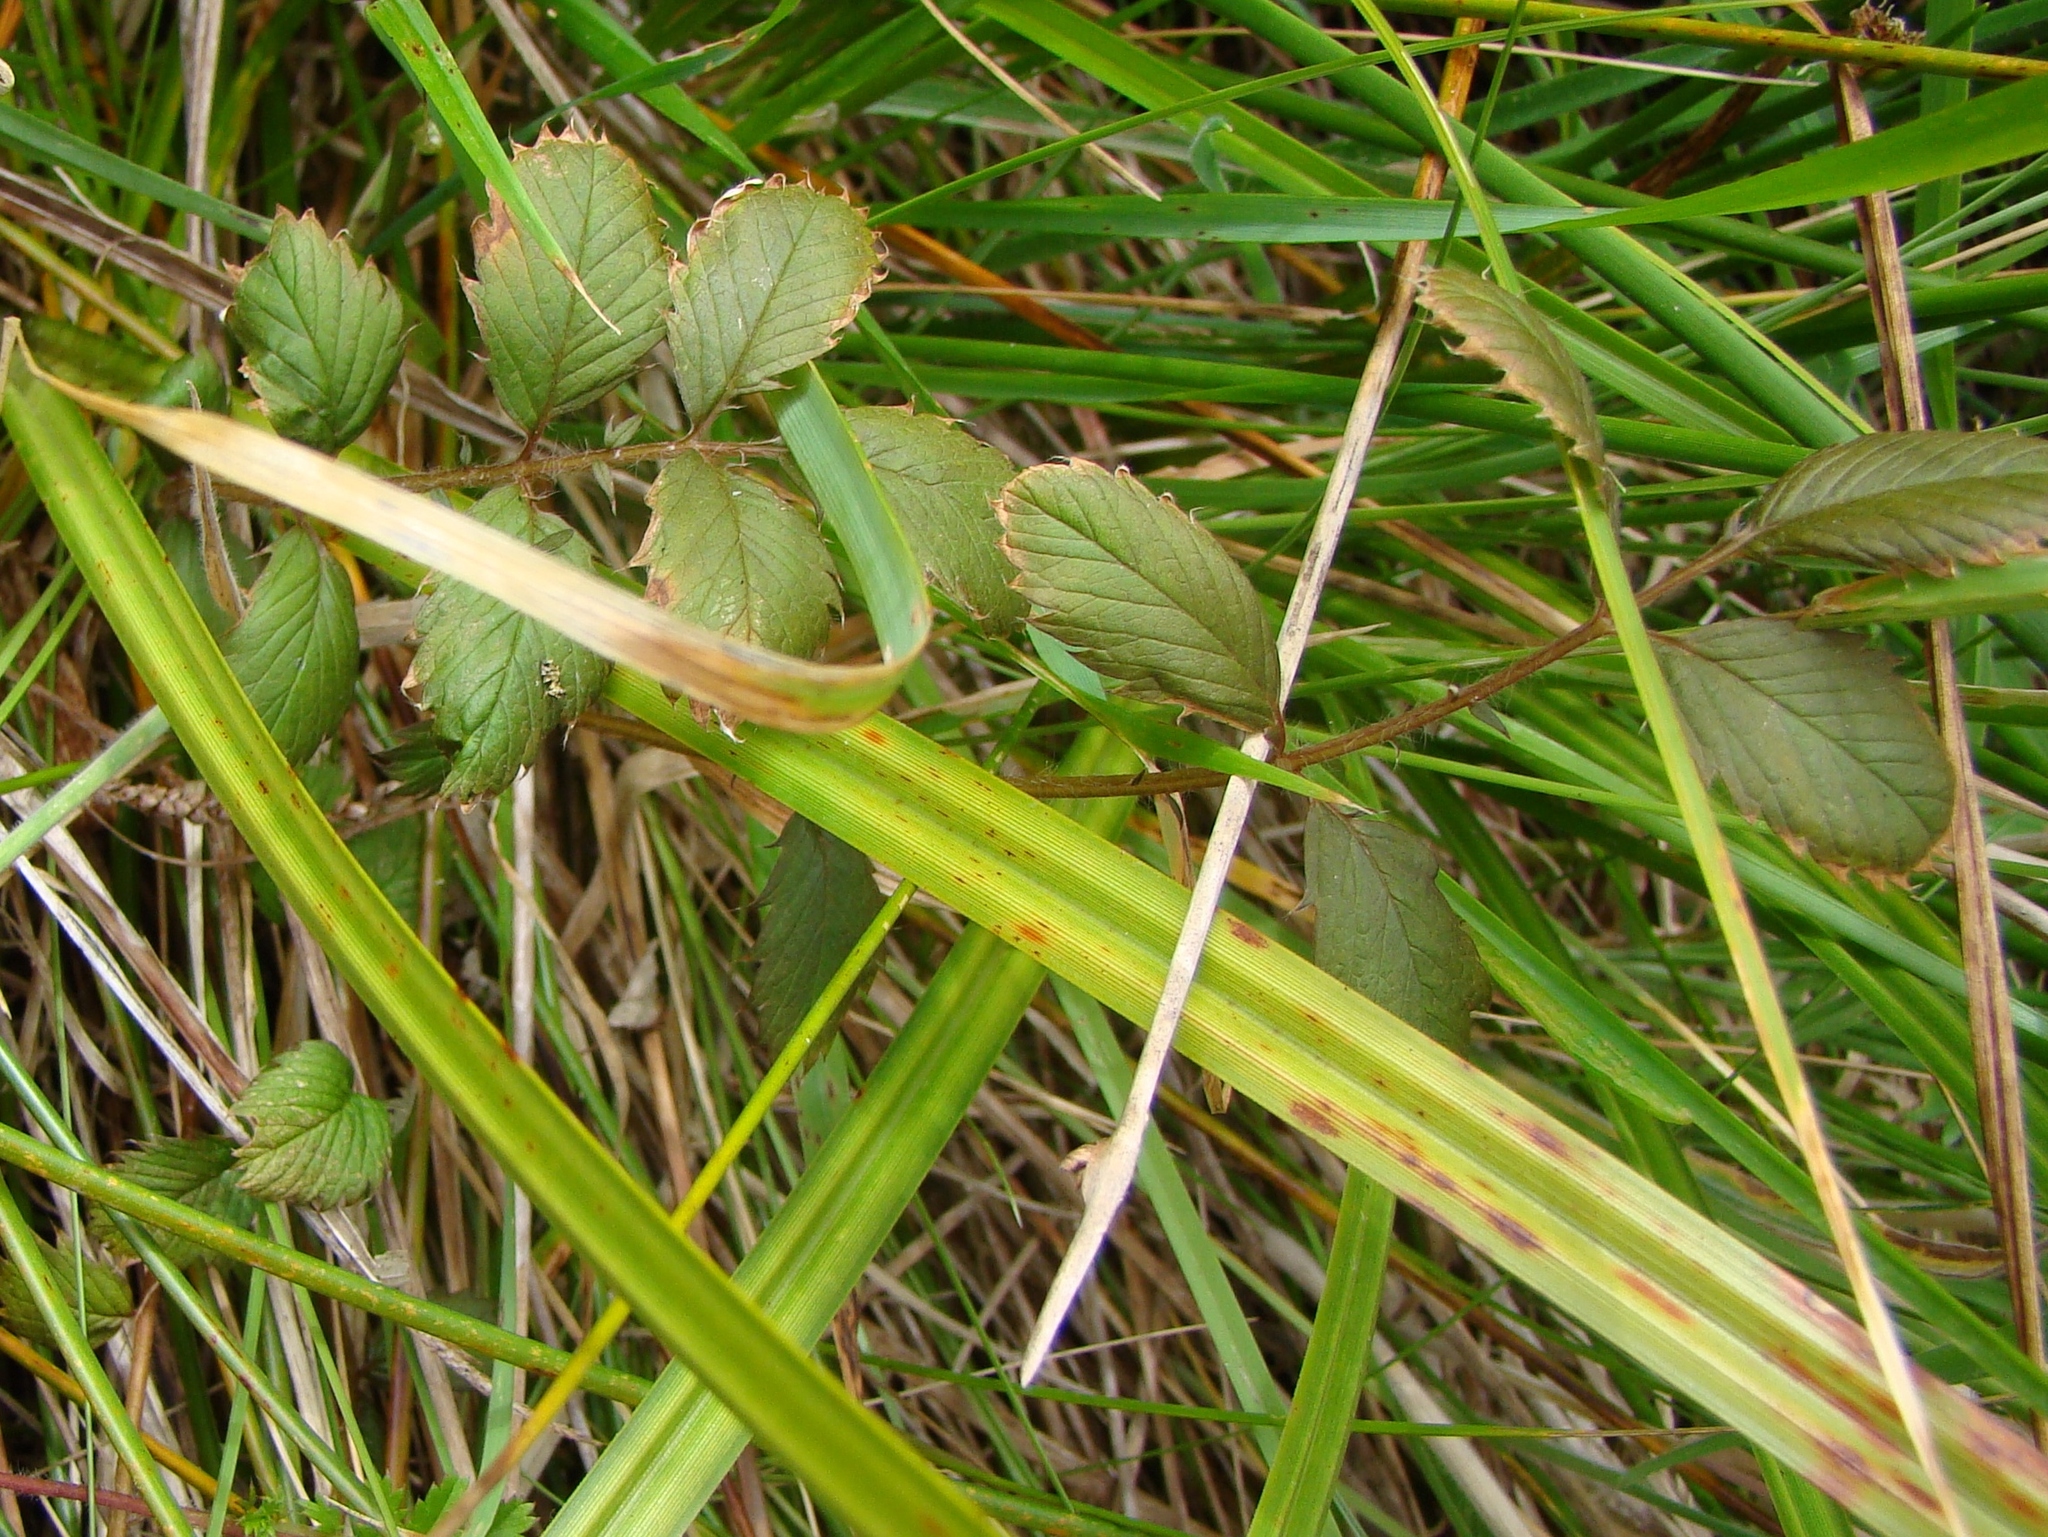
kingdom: Plantae
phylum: Tracheophyta
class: Magnoliopsida
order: Rosales
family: Rosaceae
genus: Argentina
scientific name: Argentina anserinoides
